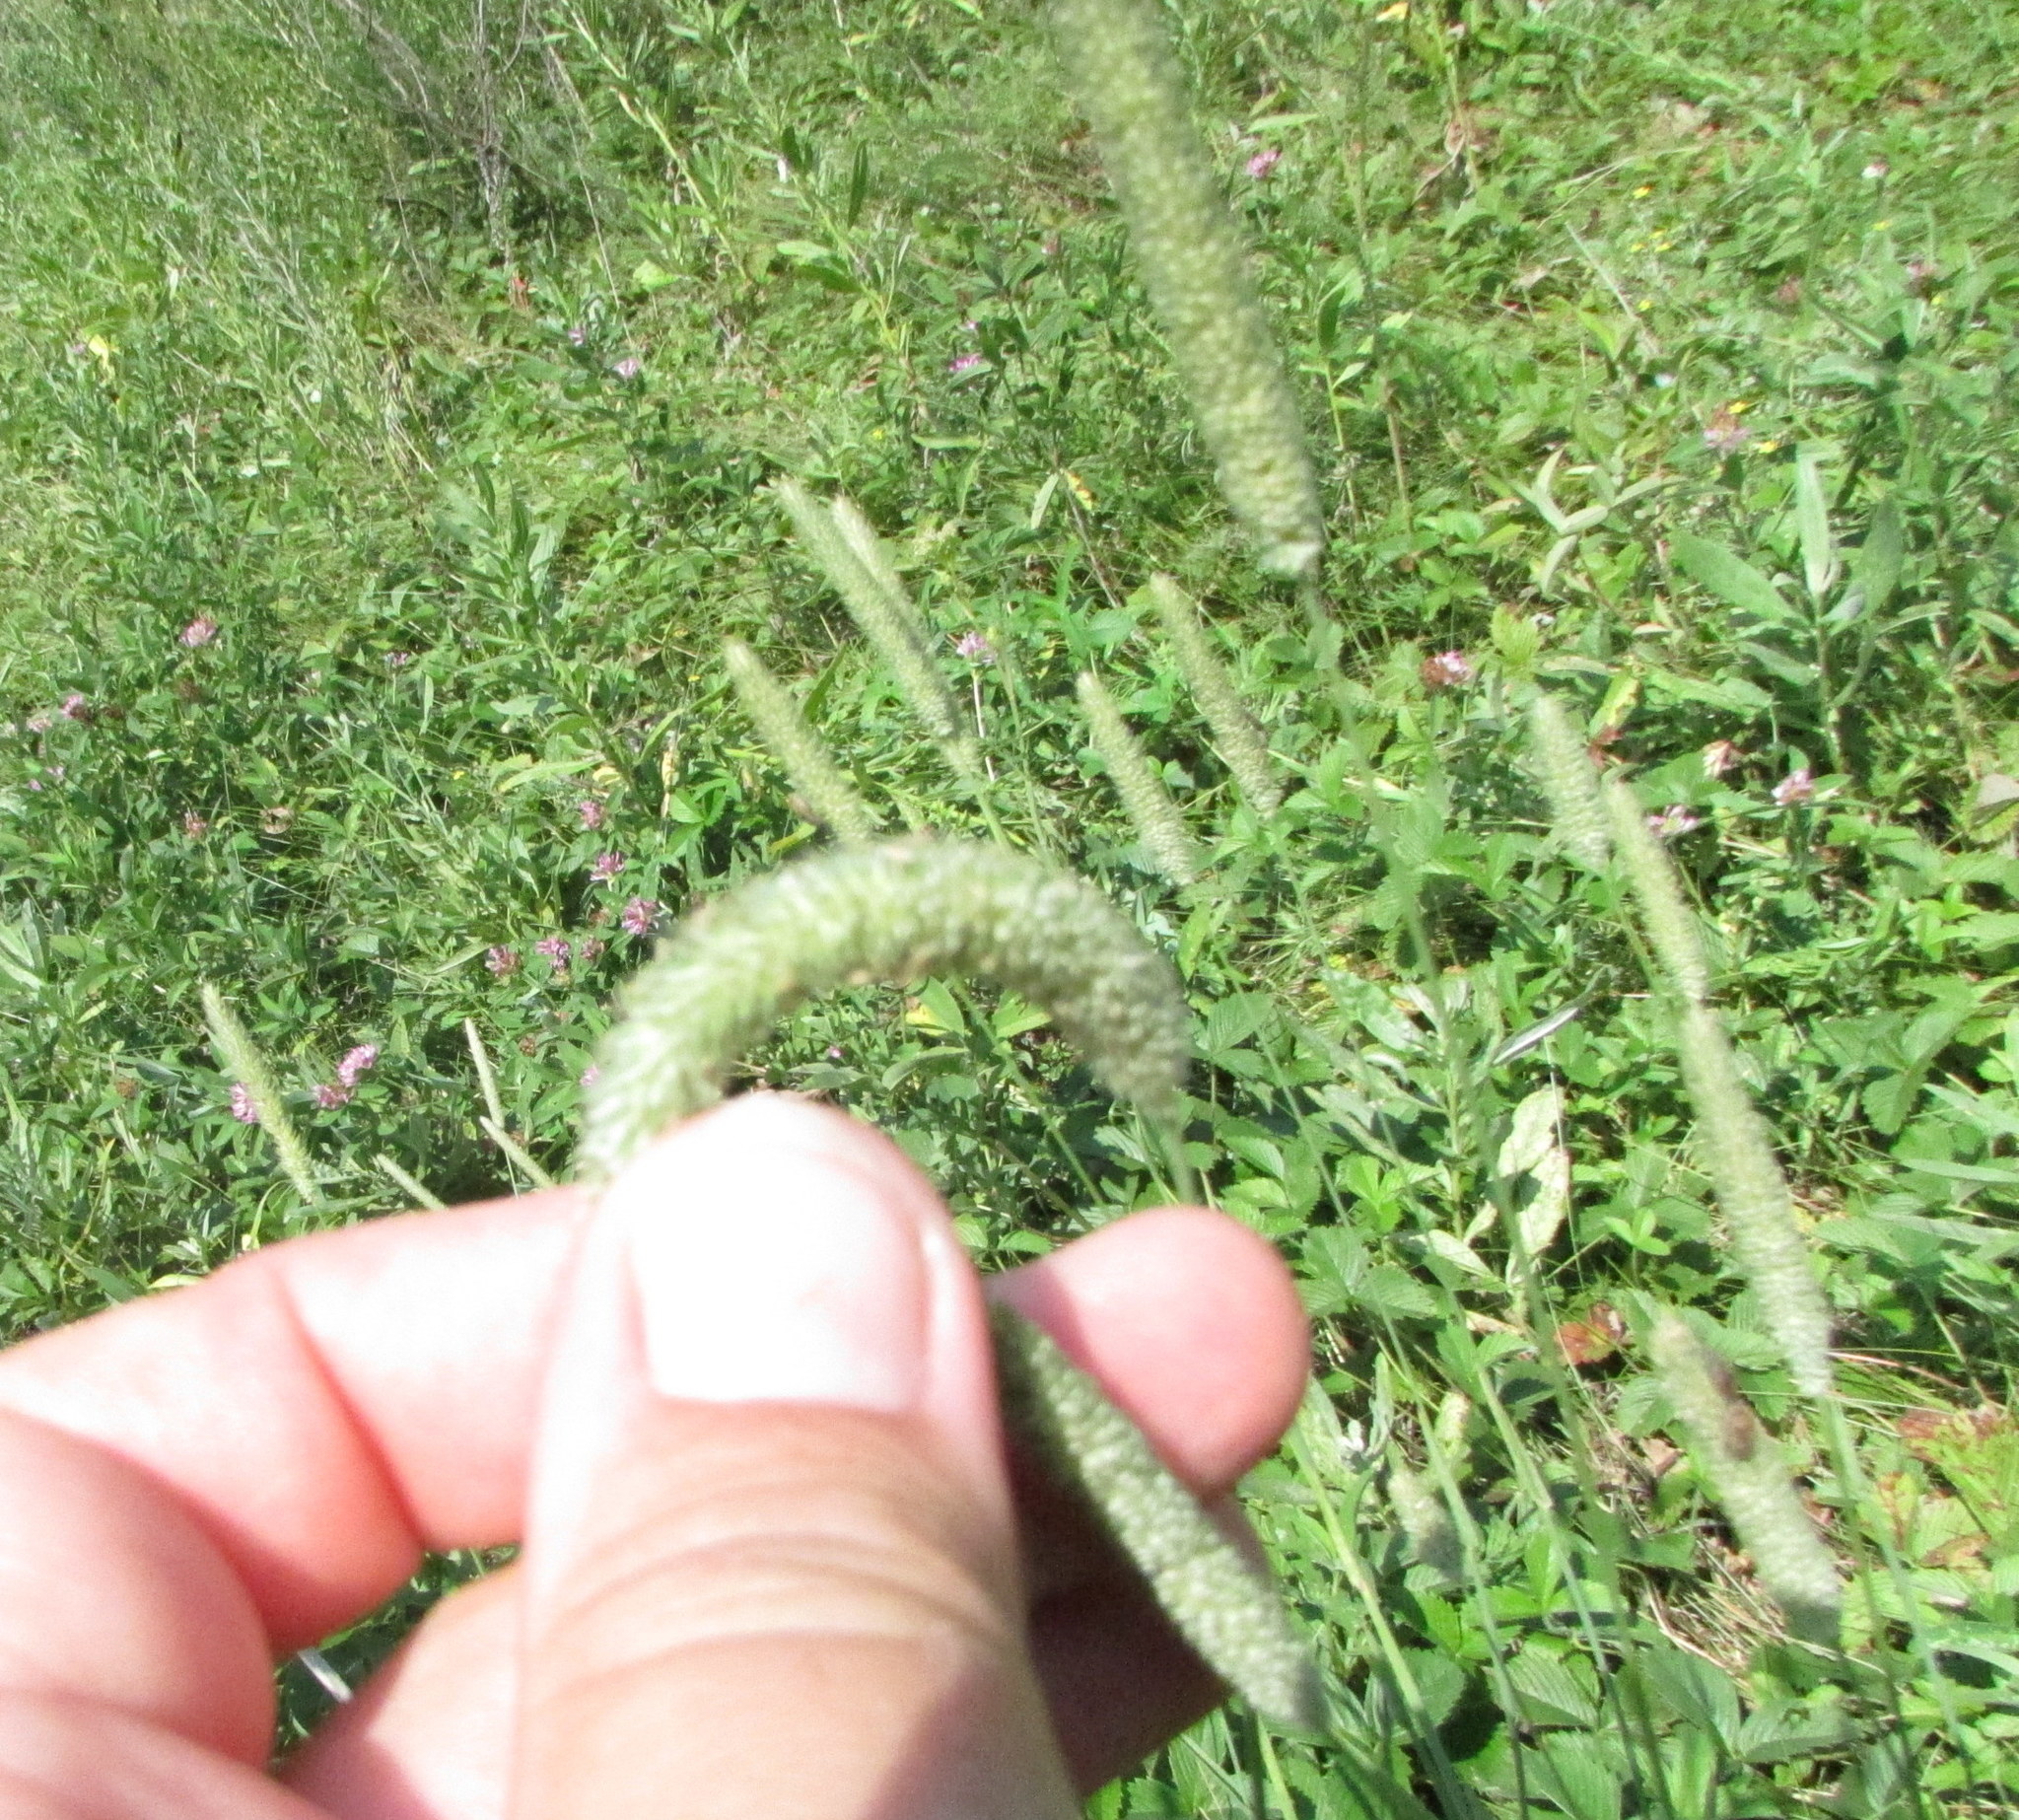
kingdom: Plantae
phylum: Tracheophyta
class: Liliopsida
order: Poales
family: Poaceae
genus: Phleum
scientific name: Phleum pratense
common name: Timothy grass
